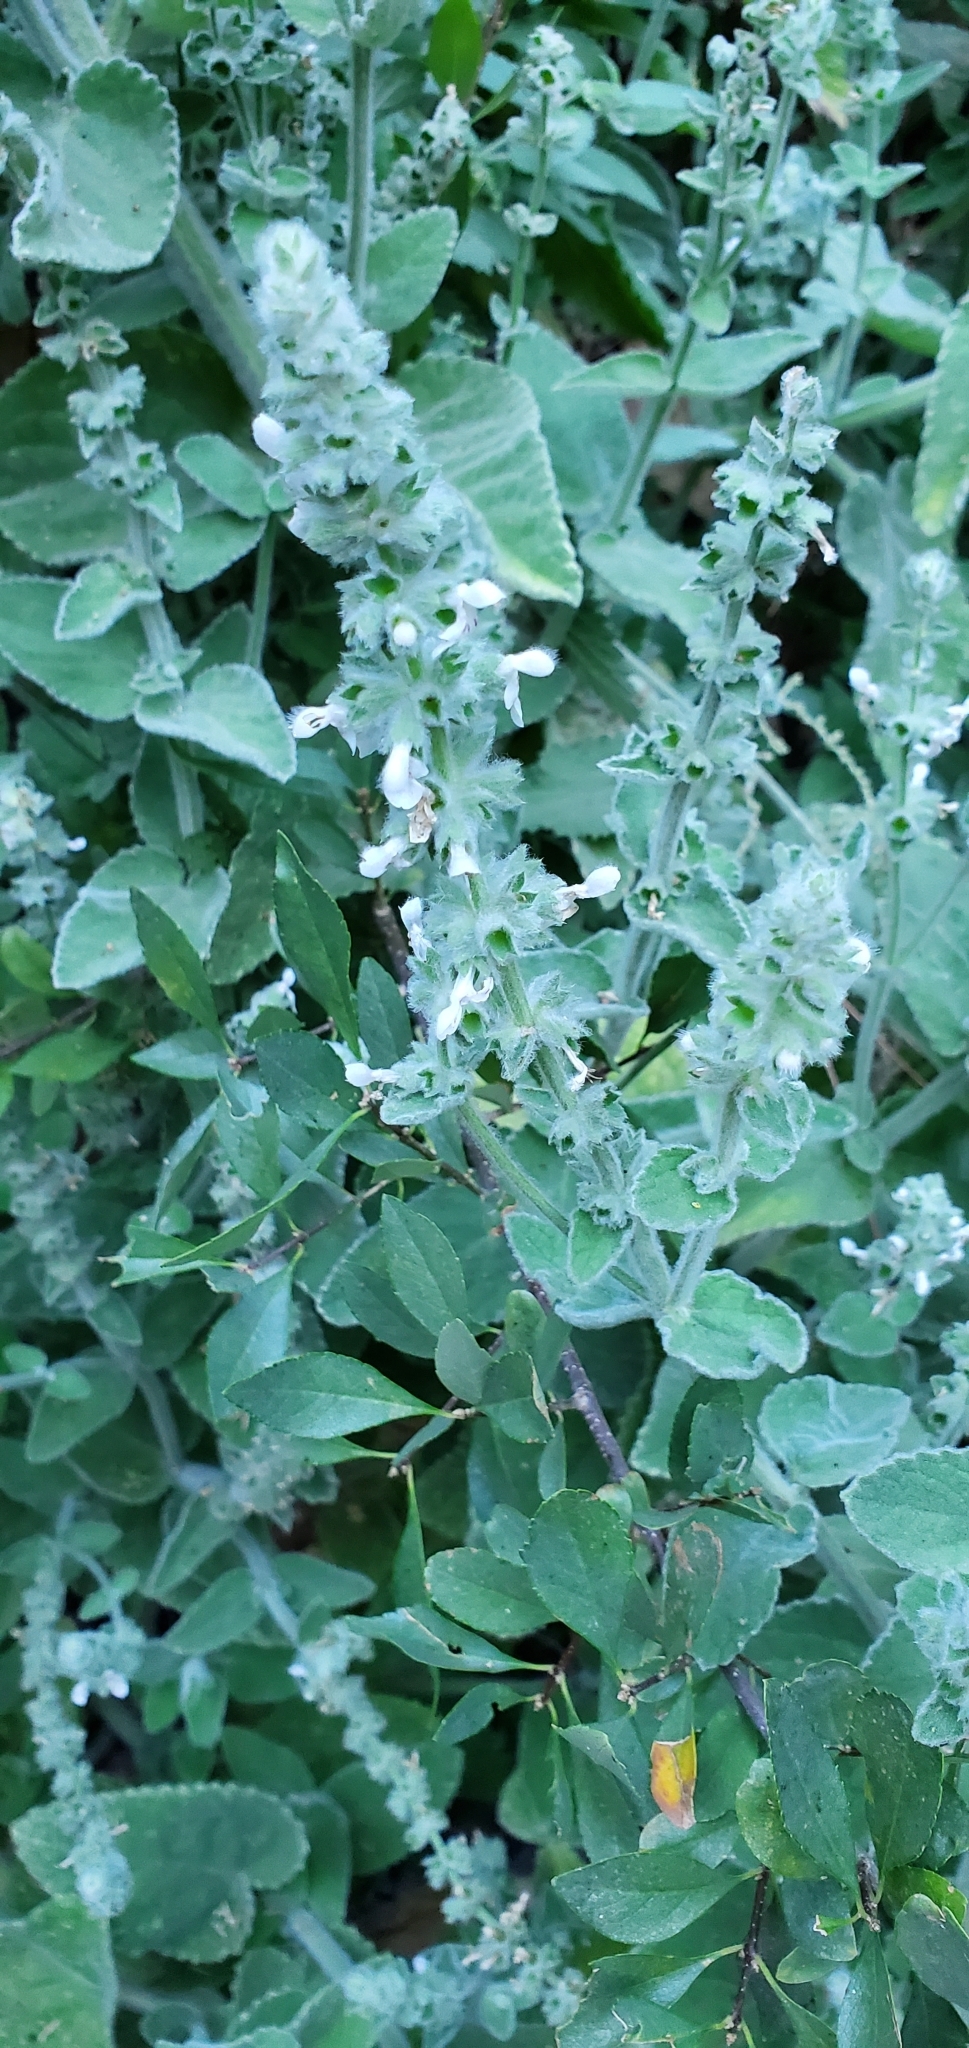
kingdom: Plantae
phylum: Tracheophyta
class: Magnoliopsida
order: Lamiales
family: Lamiaceae
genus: Stachys
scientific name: Stachys albens
